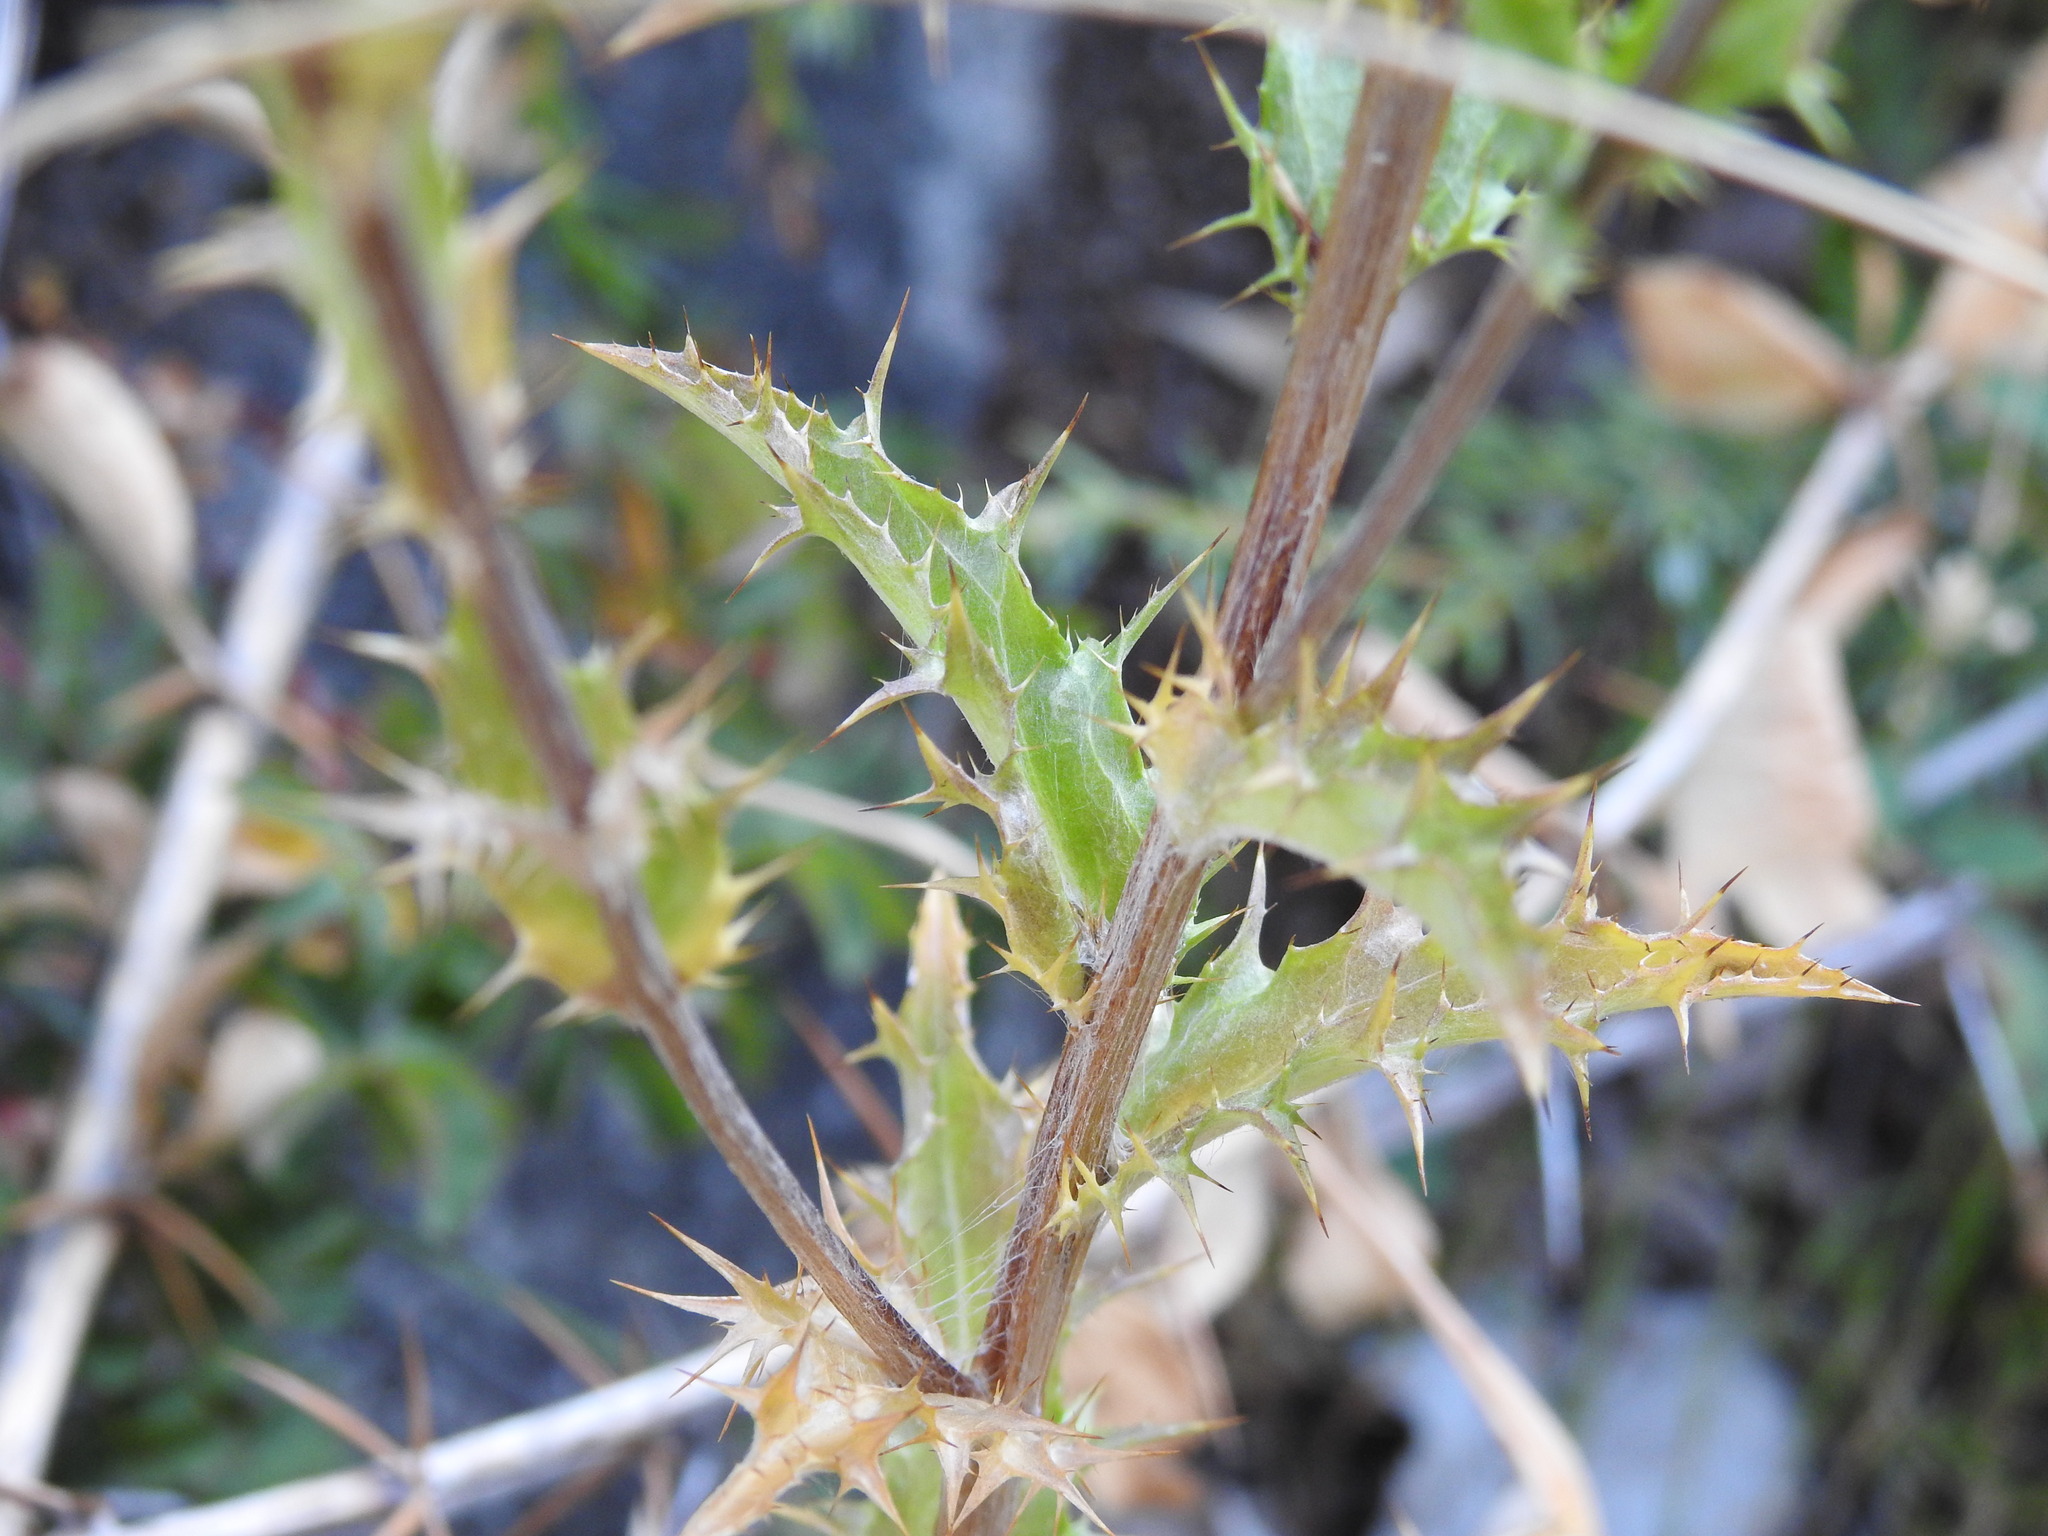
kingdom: Plantae
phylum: Tracheophyta
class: Magnoliopsida
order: Asterales
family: Asteraceae
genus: Carlina
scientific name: Carlina vulgaris
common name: Carline thistle
